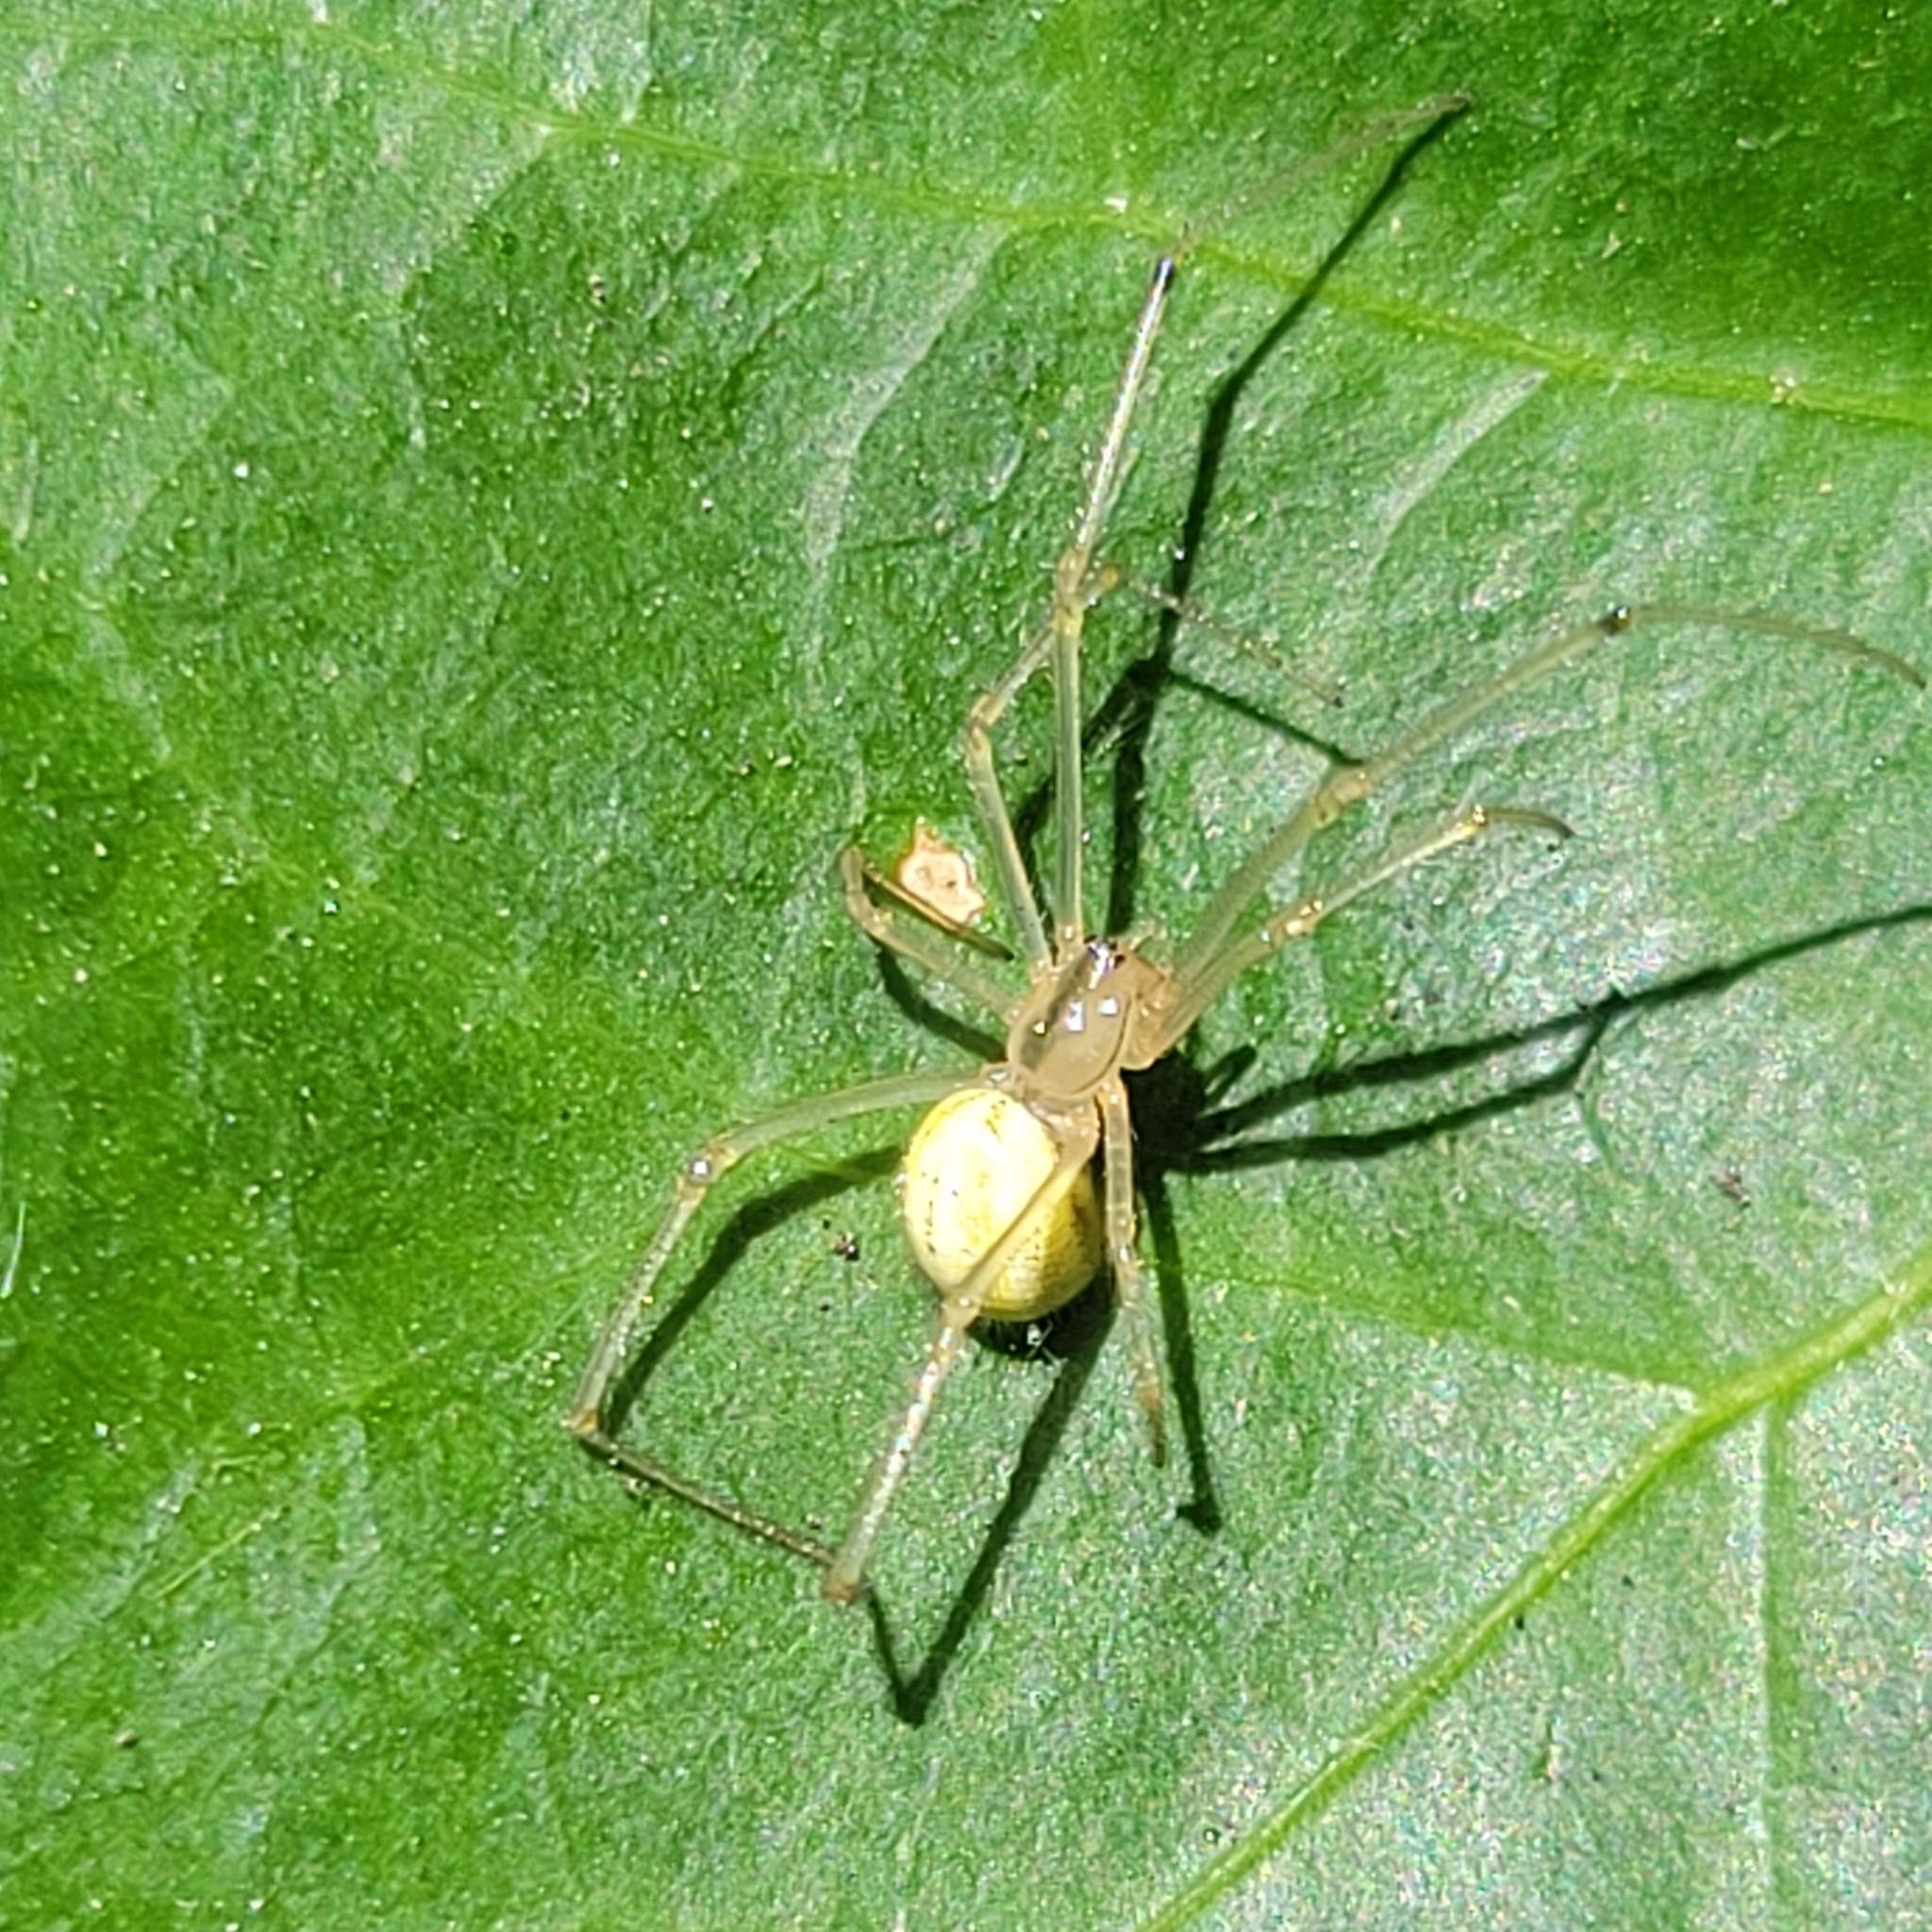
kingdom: Animalia
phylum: Arthropoda
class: Arachnida
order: Araneae
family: Theridiidae
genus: Enoplognatha
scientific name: Enoplognatha ovata
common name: Common candy-striped spider
